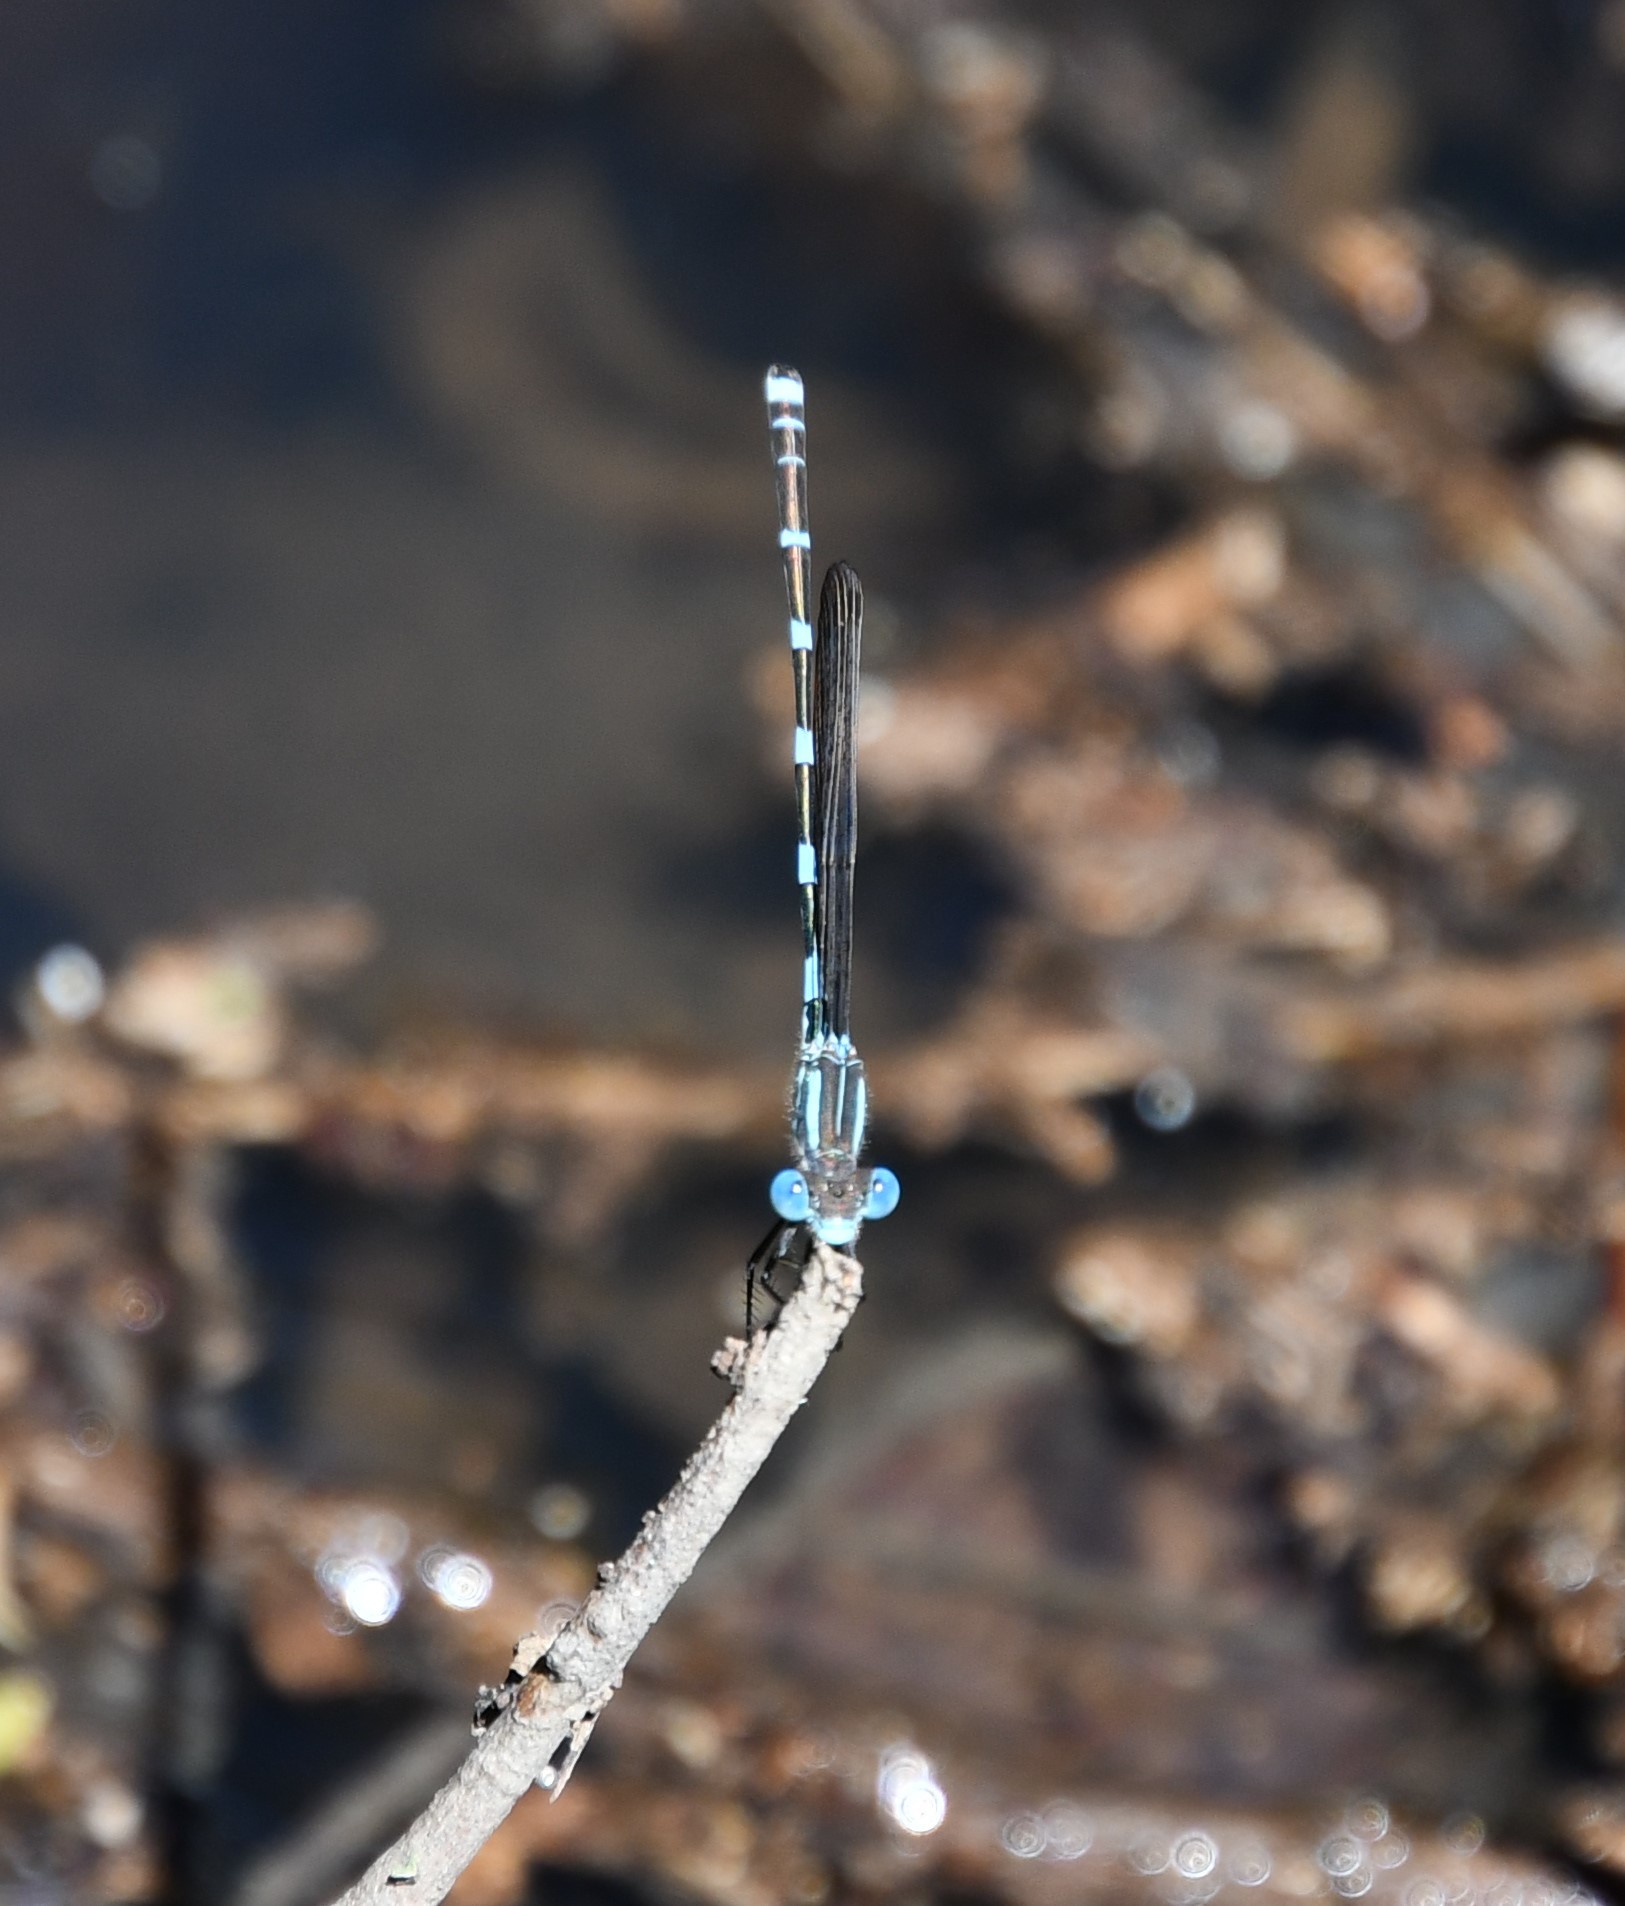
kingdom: Animalia
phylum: Arthropoda
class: Insecta
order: Odonata
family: Lestidae
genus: Austrolestes
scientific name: Austrolestes leda
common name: Wandering ringtail
